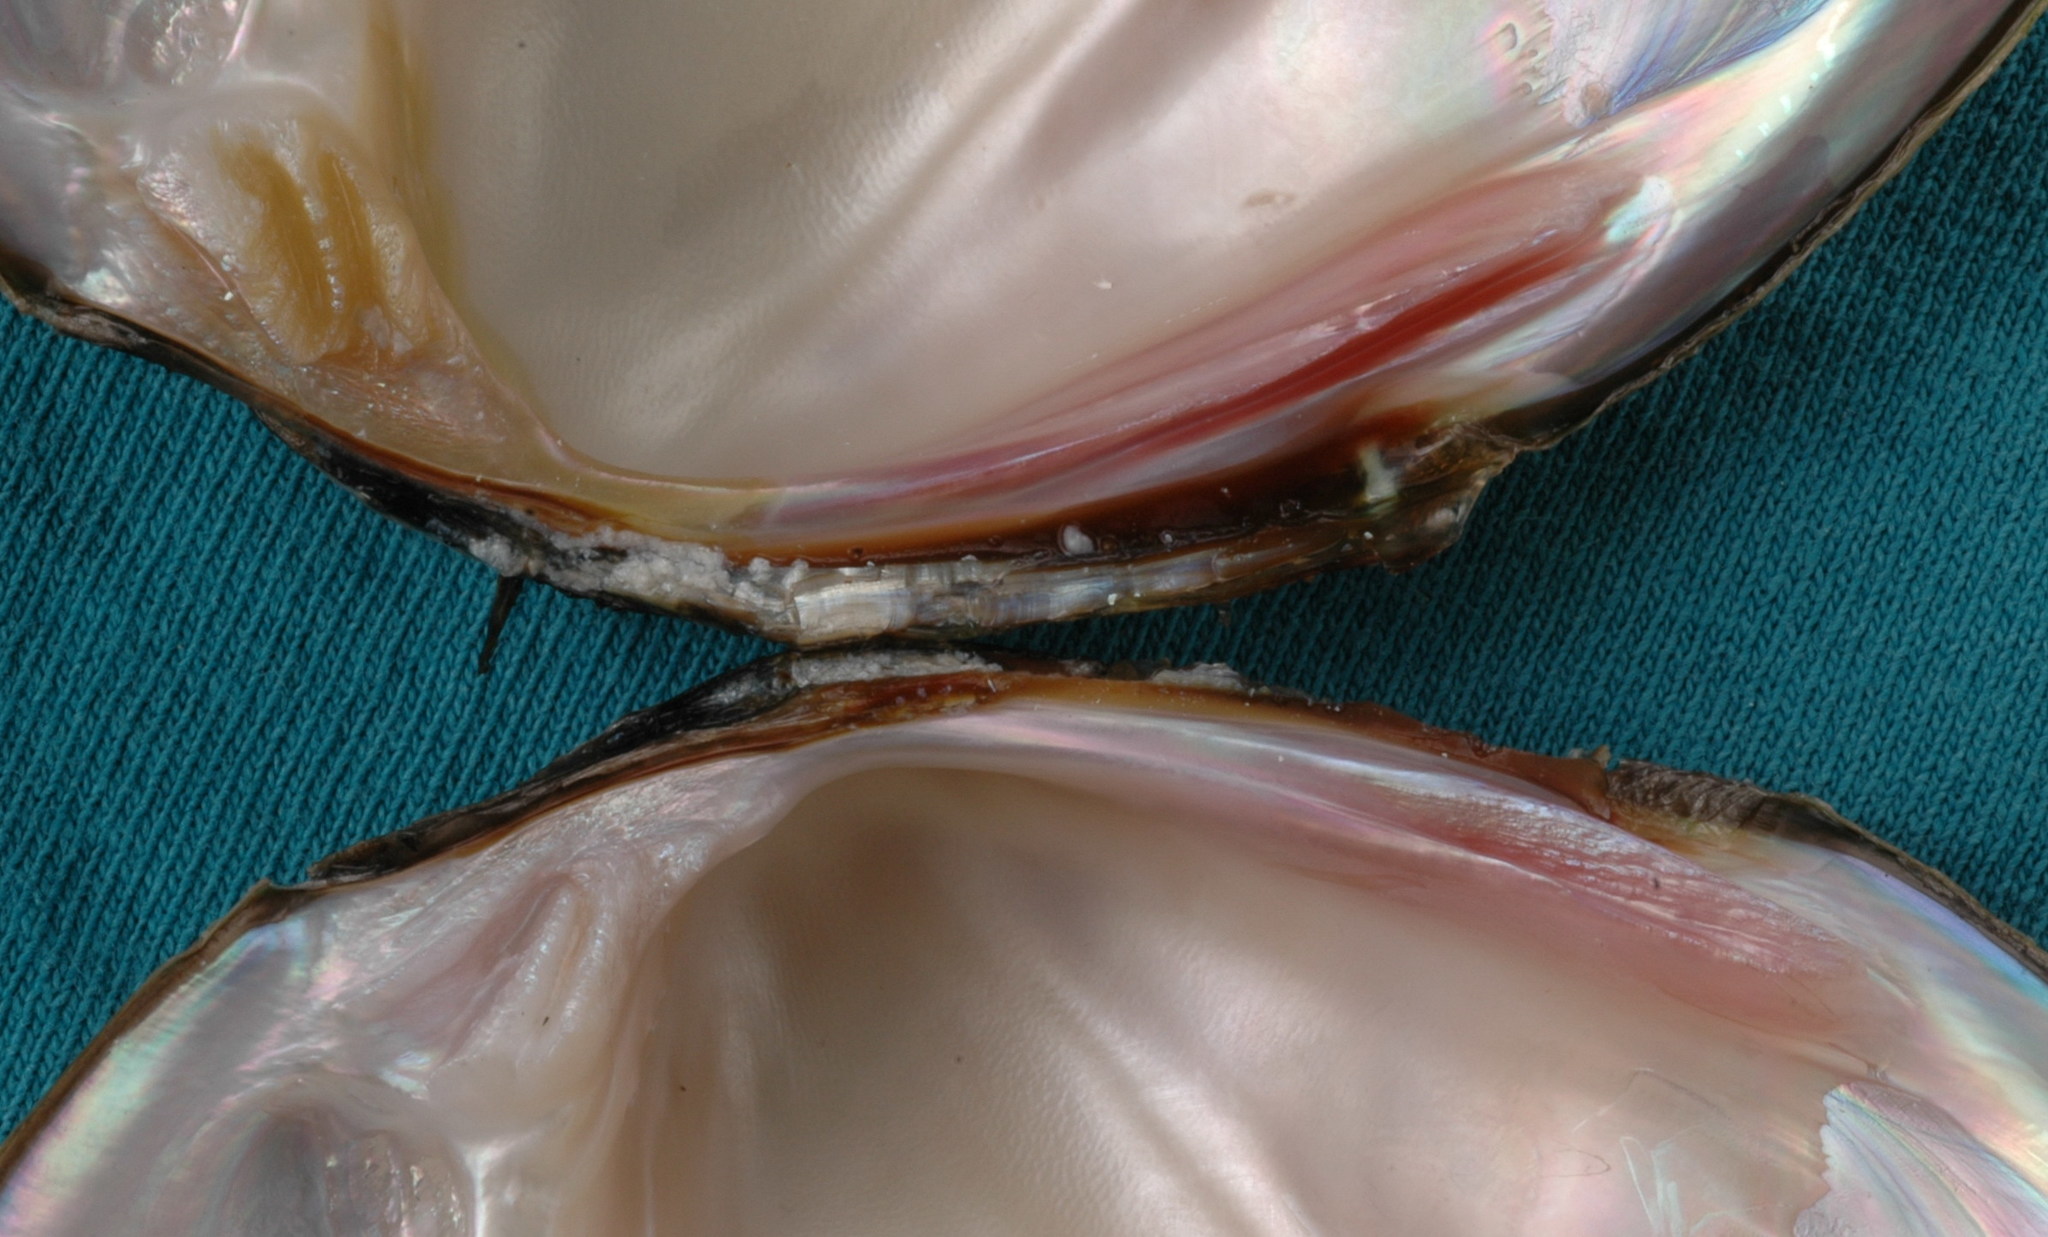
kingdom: Animalia
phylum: Mollusca
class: Bivalvia
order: Unionida
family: Unionidae
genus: Glebula
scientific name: Glebula rotundata
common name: Round pearlshell
